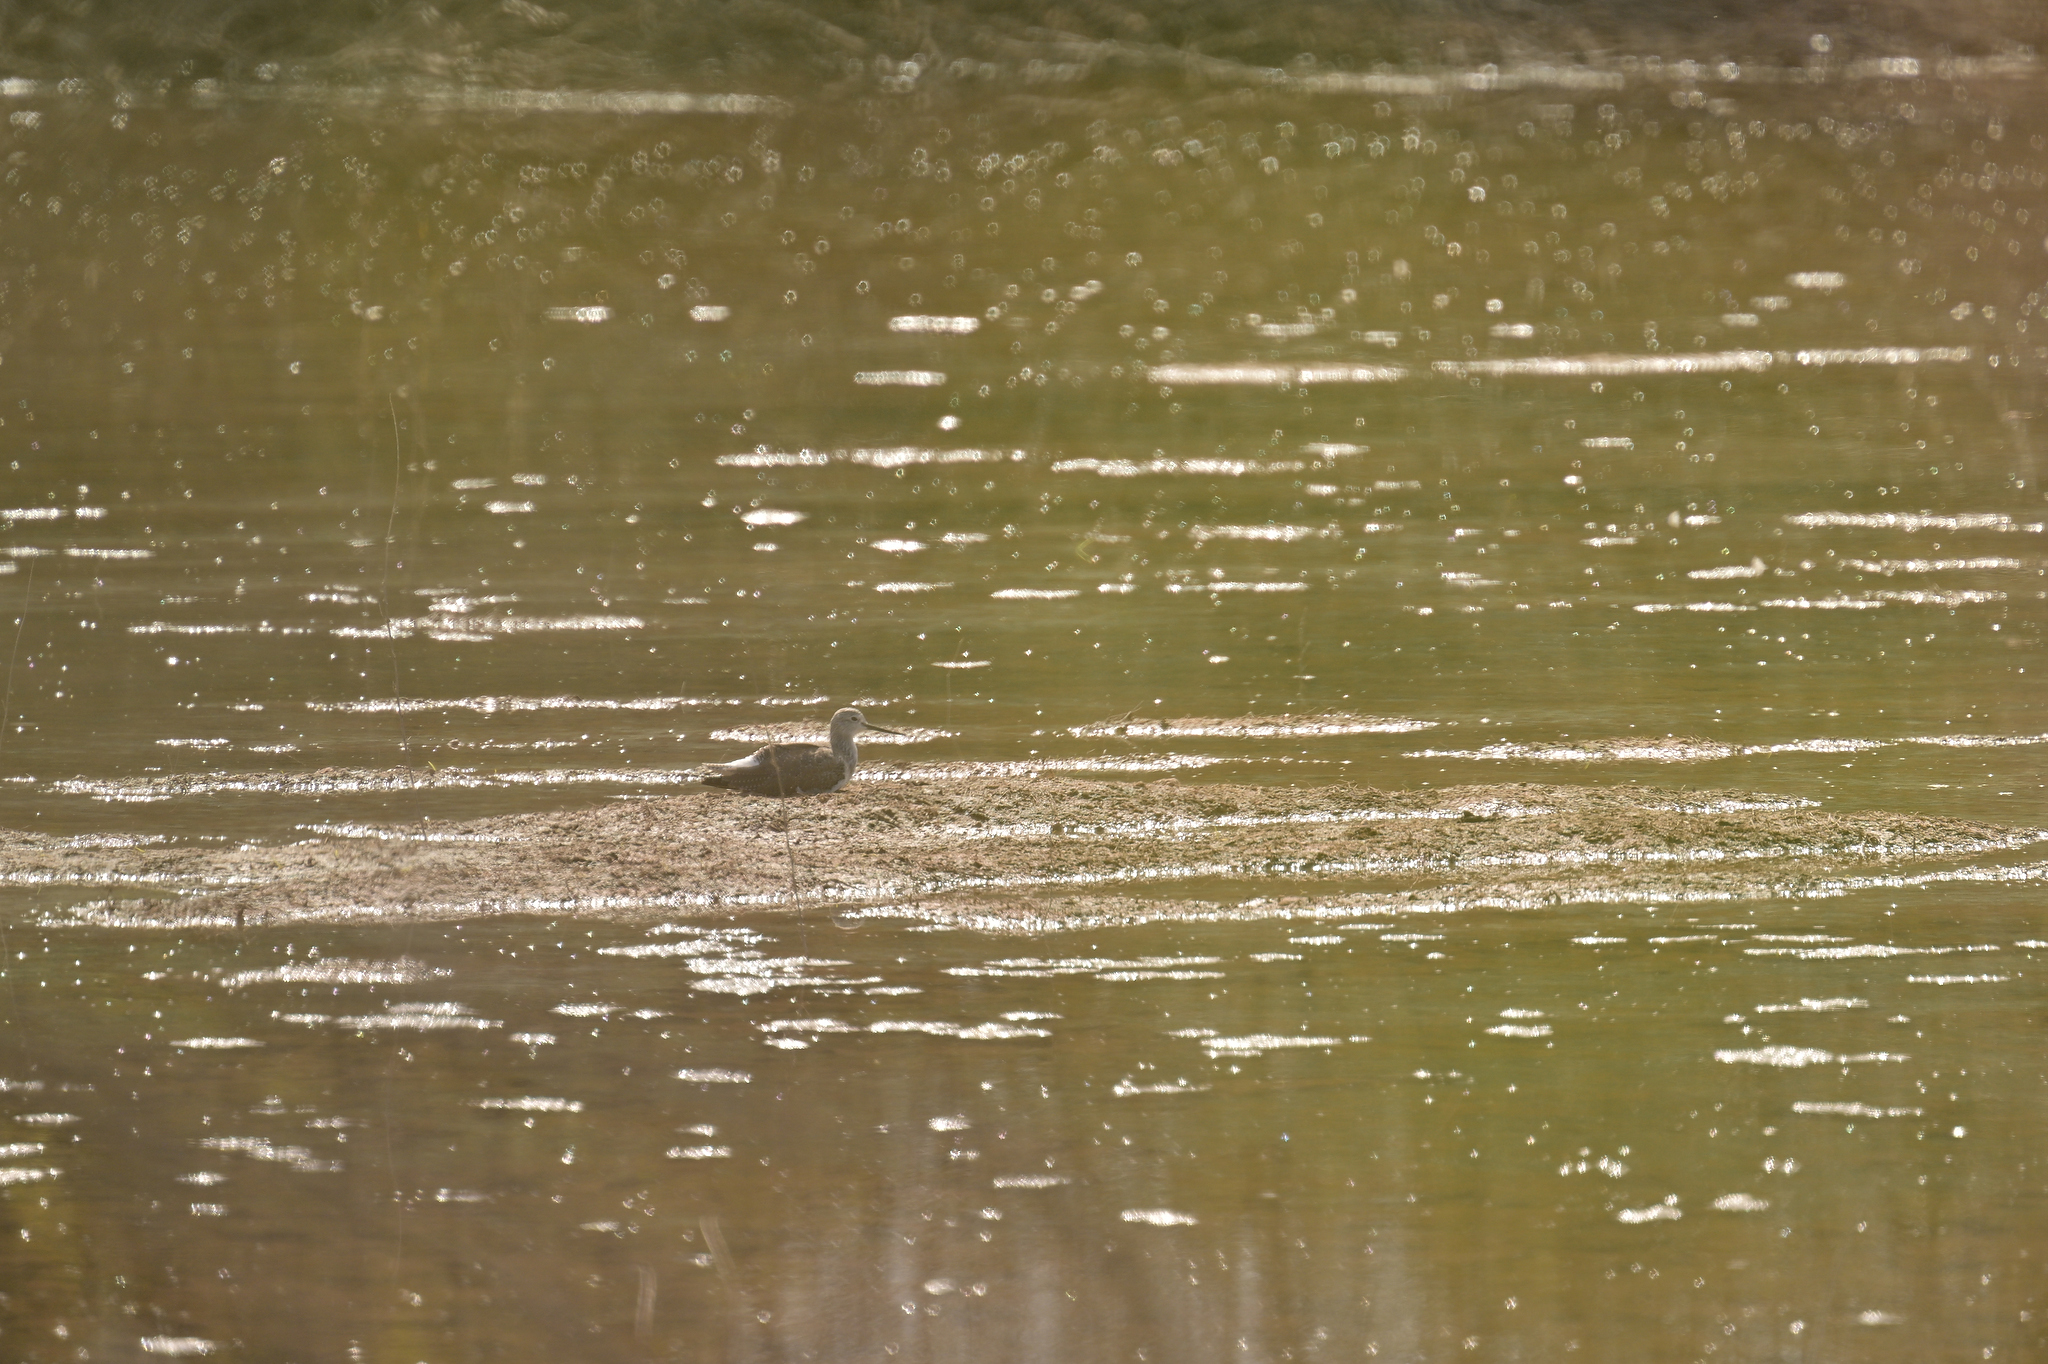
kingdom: Animalia
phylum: Chordata
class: Aves
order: Charadriiformes
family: Scolopacidae
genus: Tringa
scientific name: Tringa melanoleuca
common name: Greater yellowlegs
